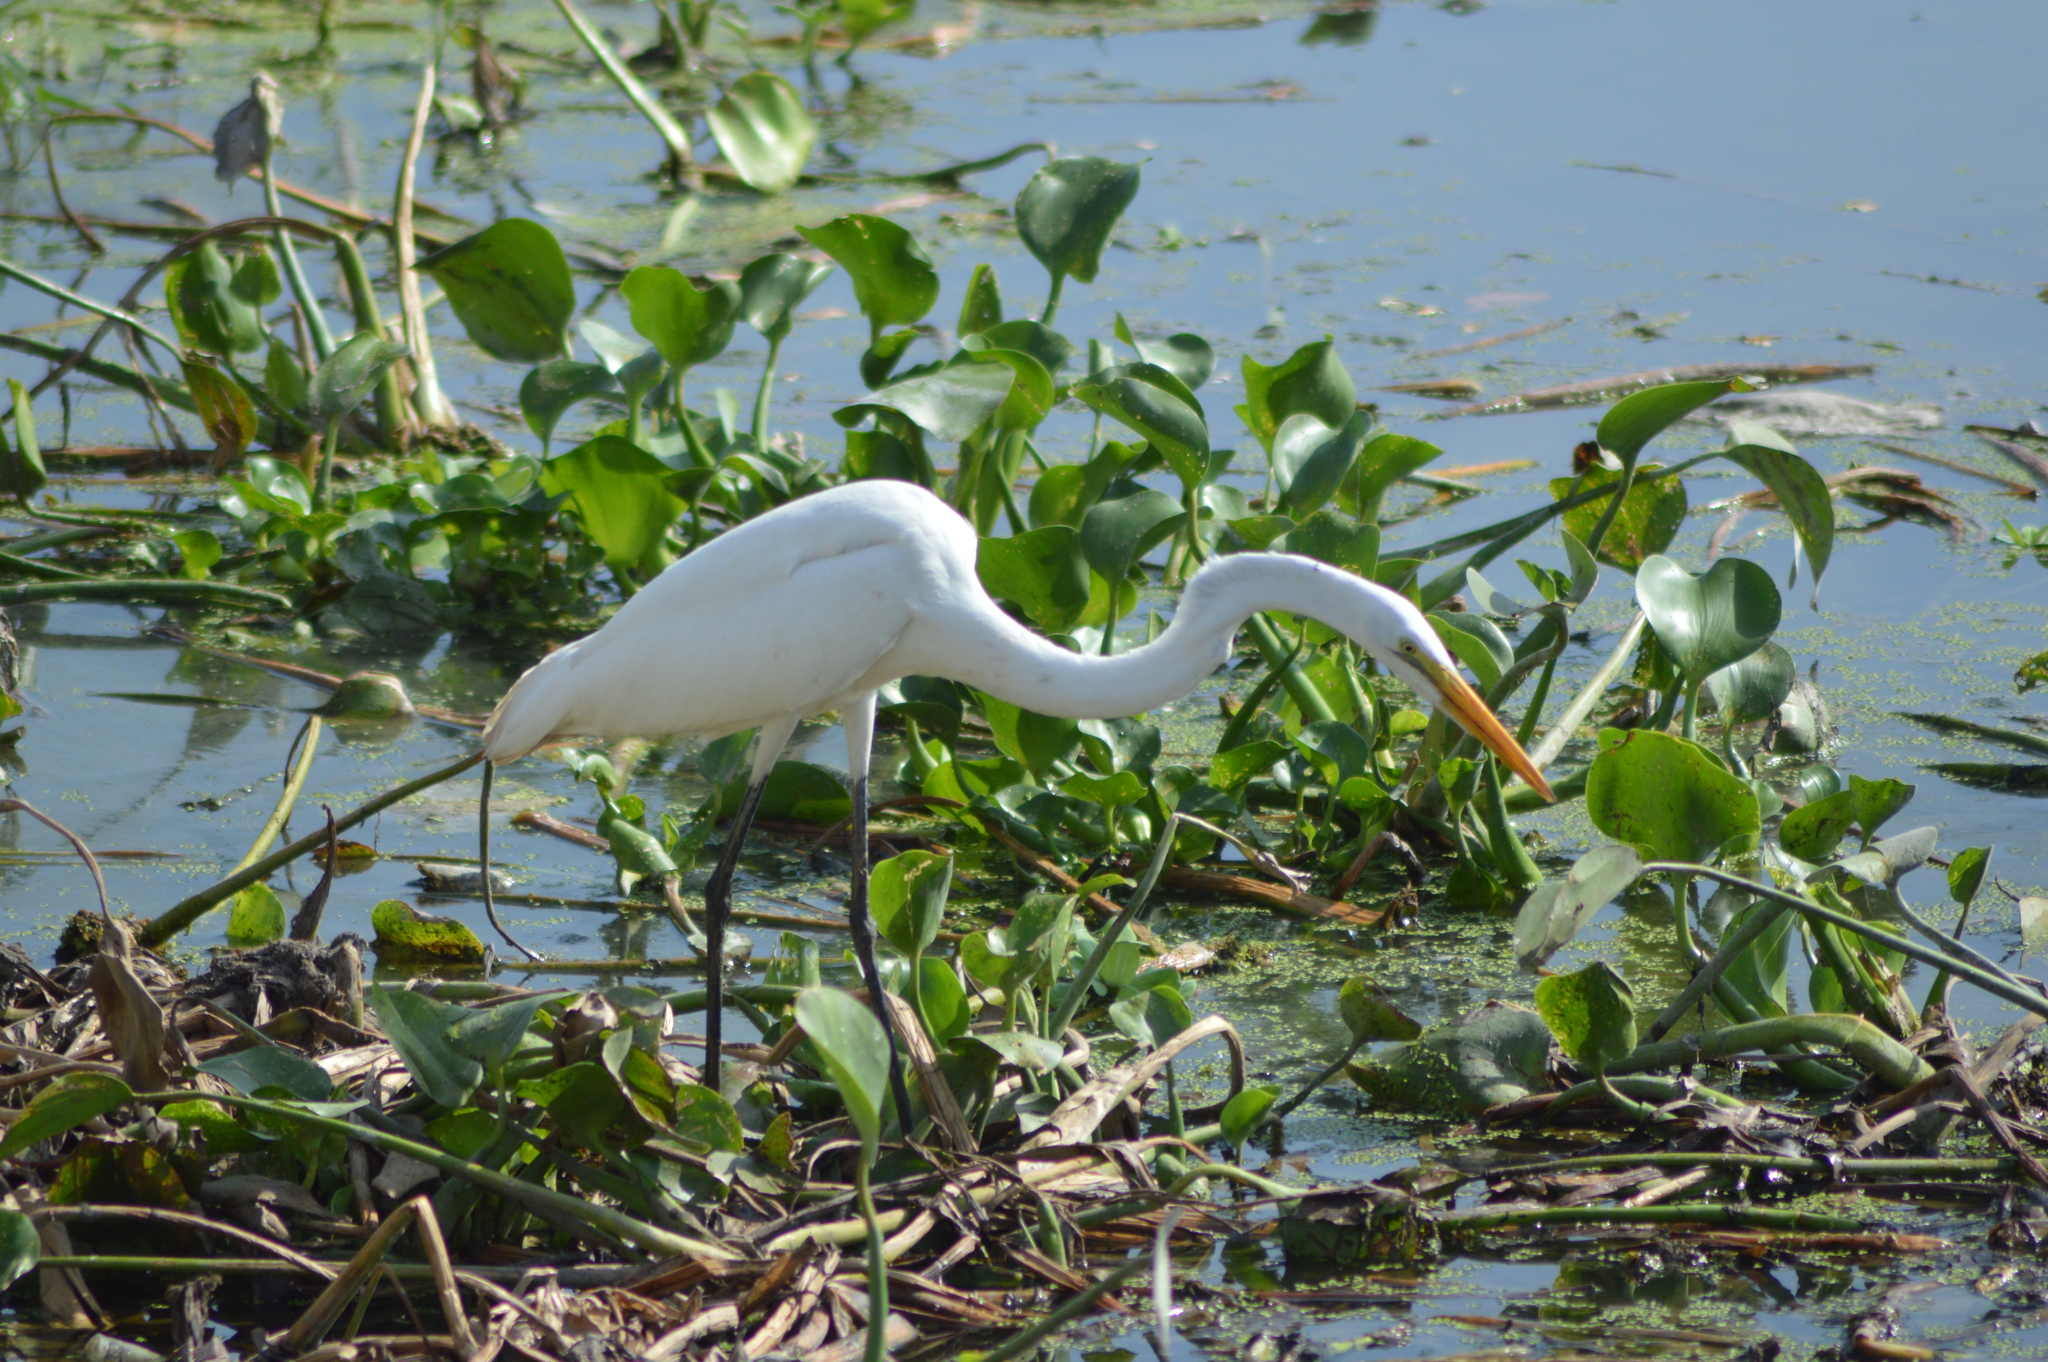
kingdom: Animalia
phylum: Chordata
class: Aves
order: Pelecaniformes
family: Ardeidae
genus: Ardea
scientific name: Ardea alba
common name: Great egret
